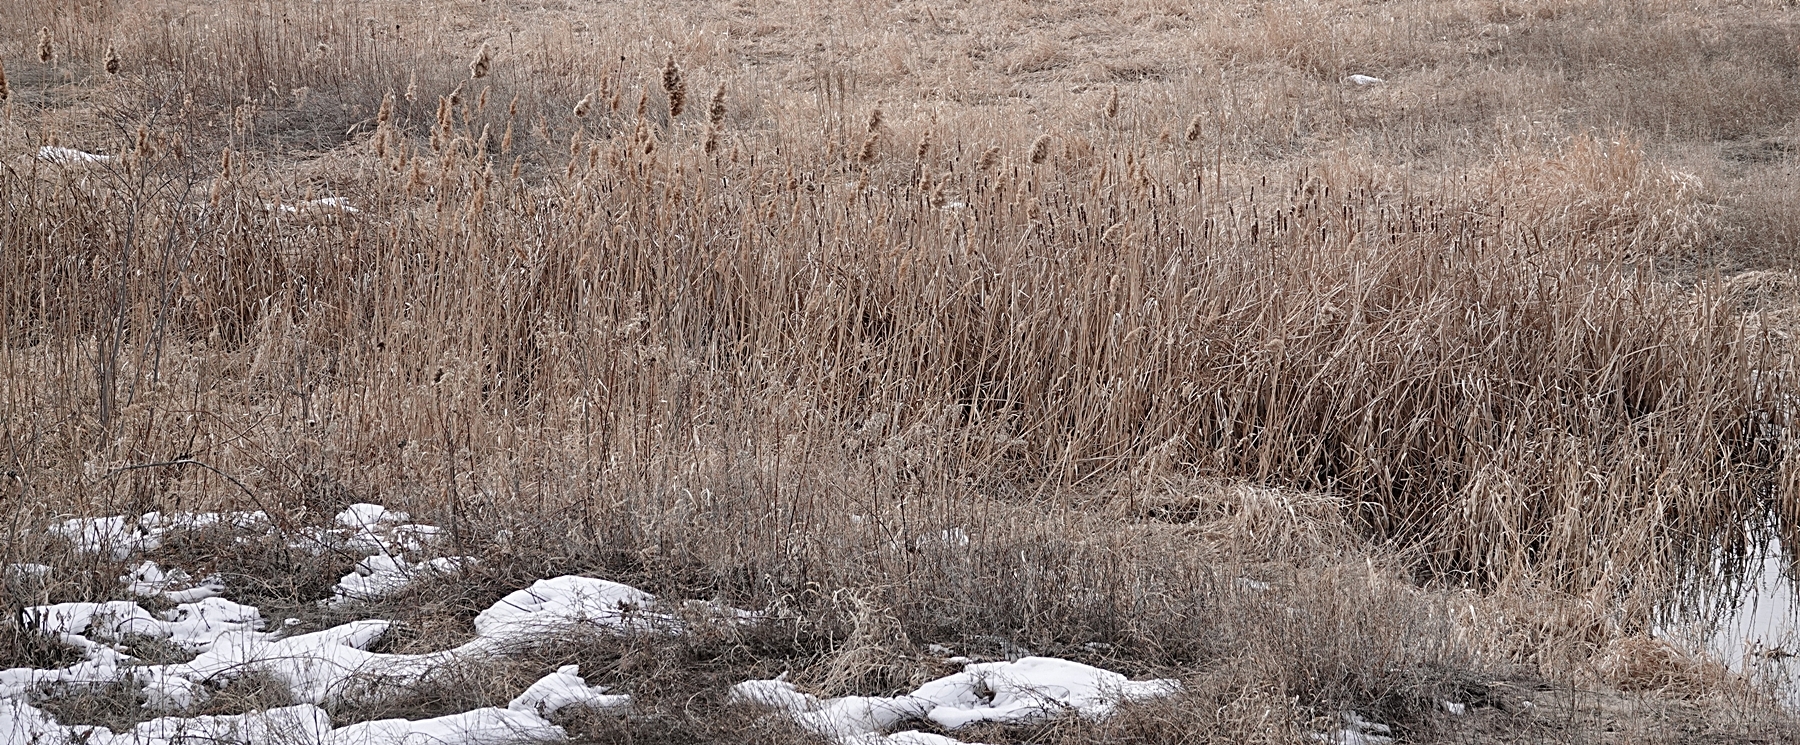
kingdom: Plantae
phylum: Tracheophyta
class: Liliopsida
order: Poales
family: Typhaceae
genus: Typha
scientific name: Typha
